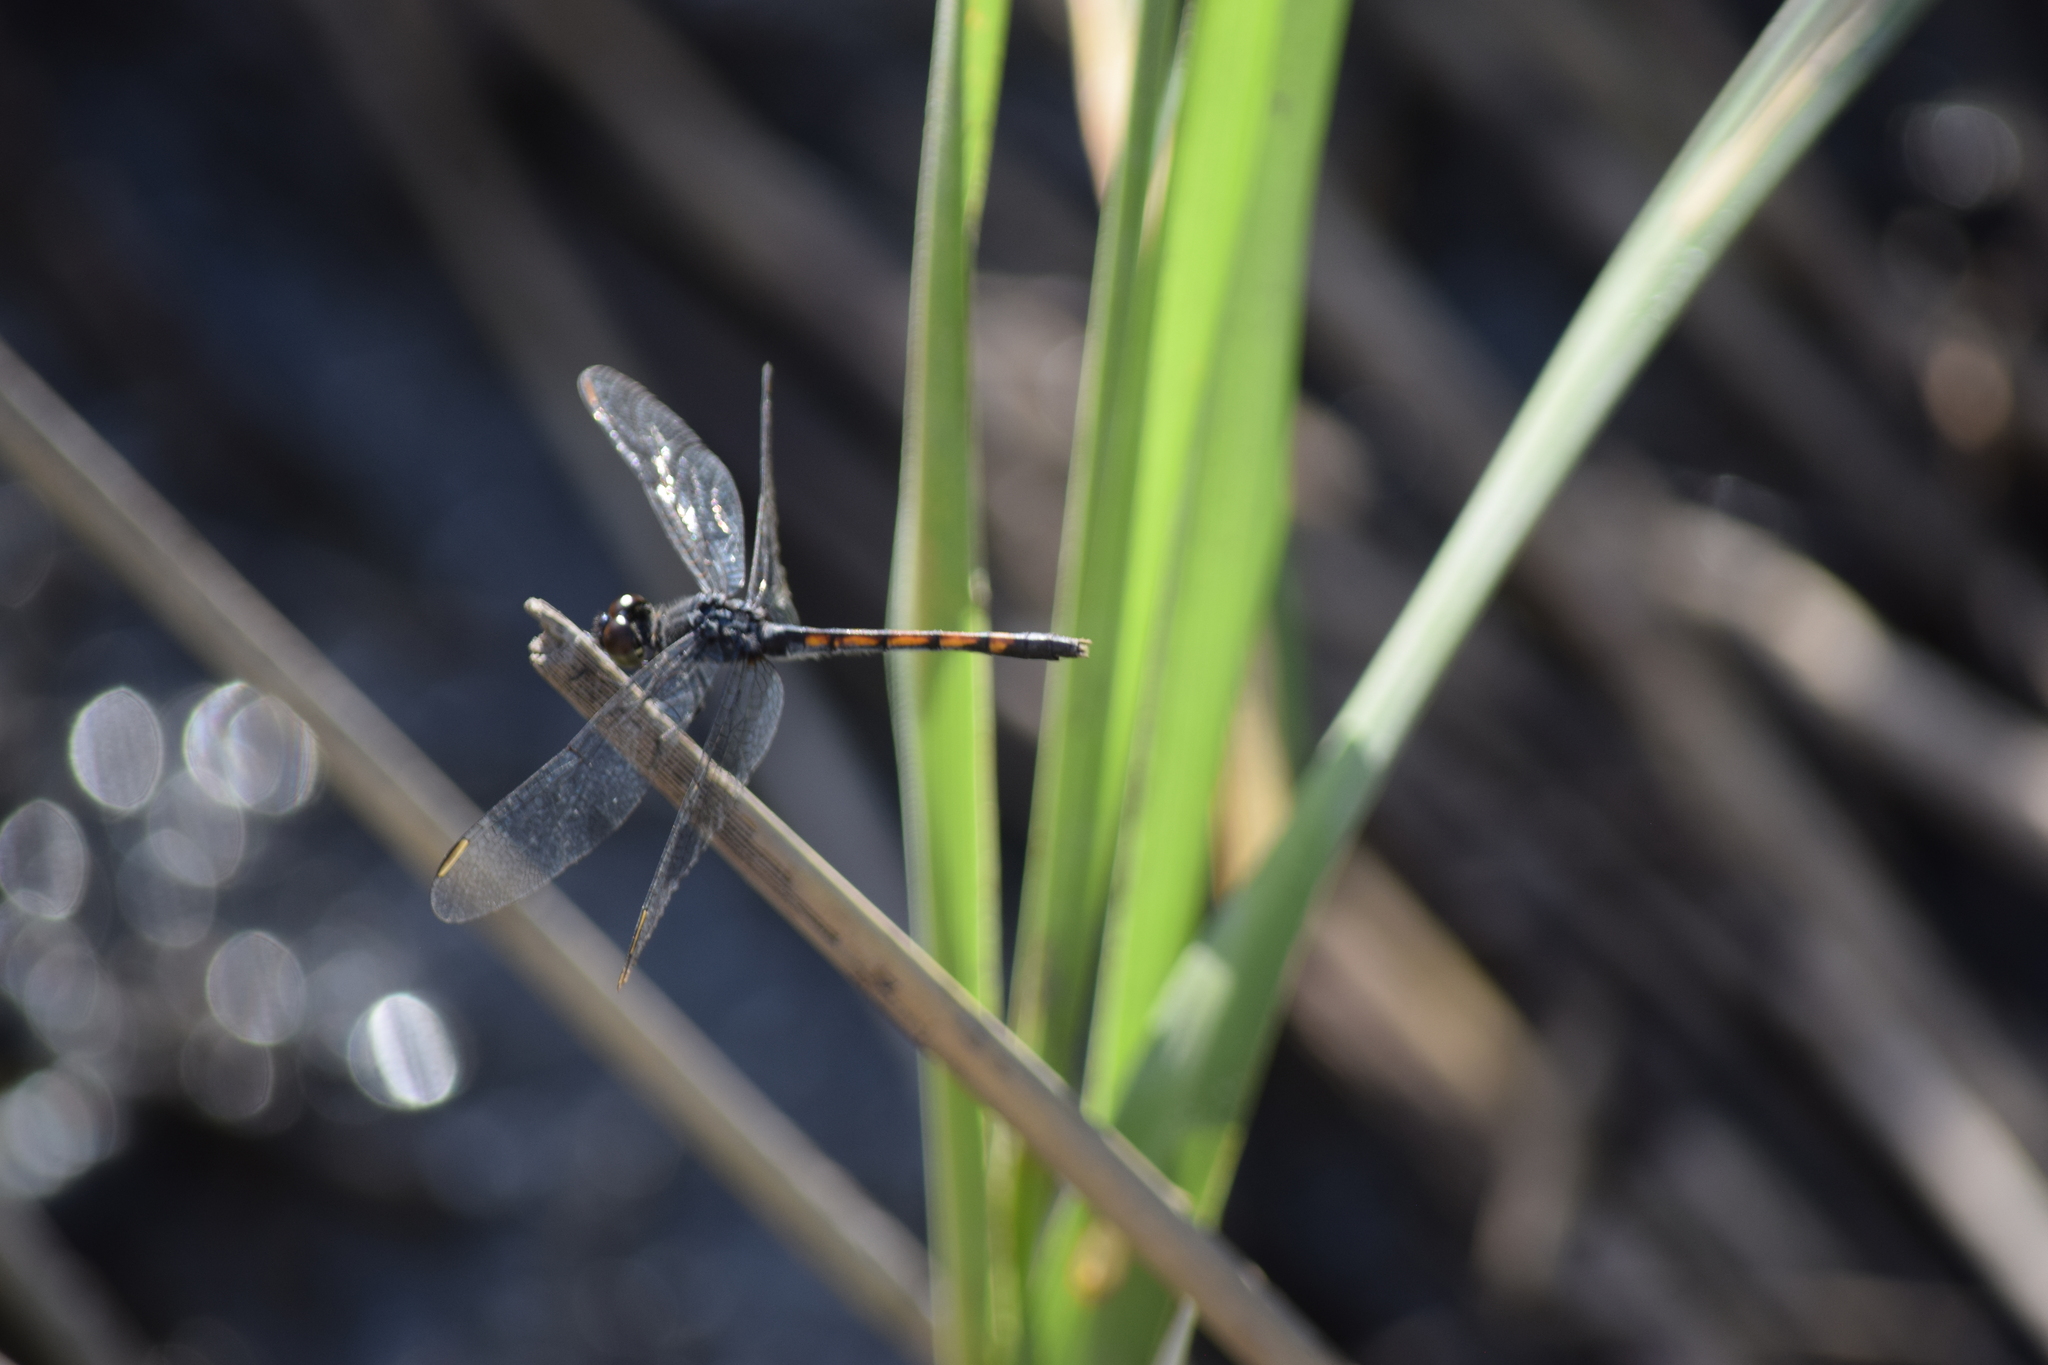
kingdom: Animalia
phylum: Arthropoda
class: Insecta
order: Odonata
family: Libellulidae
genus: Erythrodiplax
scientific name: Erythrodiplax berenice
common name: Seaside dragonlet
